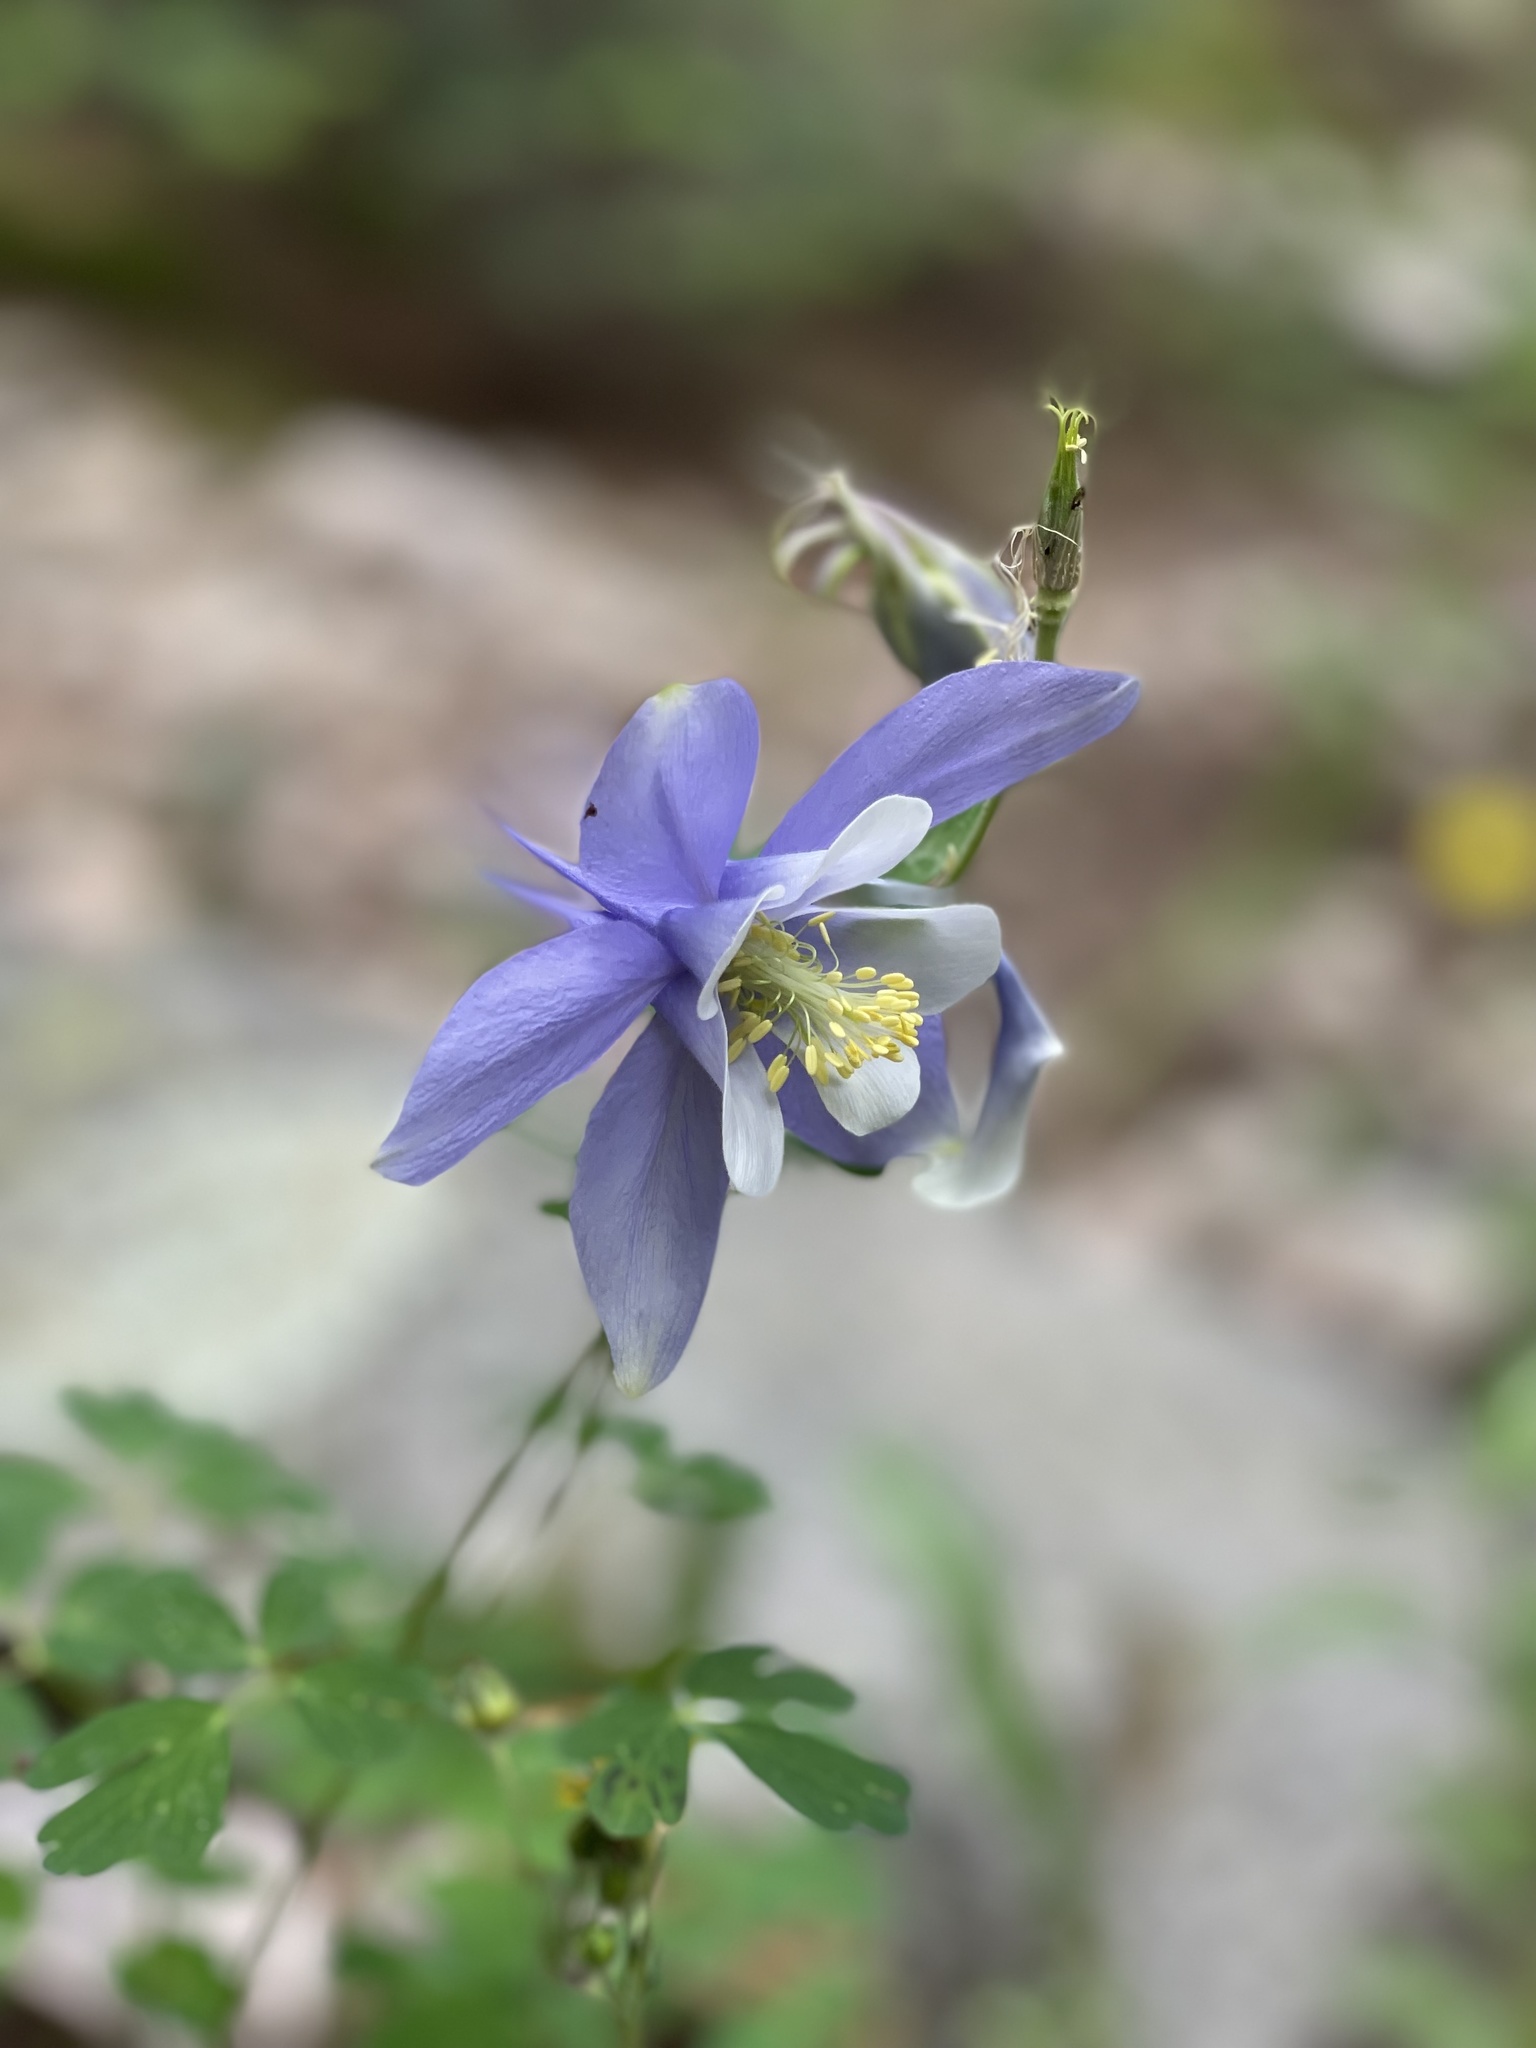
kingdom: Plantae
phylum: Tracheophyta
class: Magnoliopsida
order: Ranunculales
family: Ranunculaceae
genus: Aquilegia
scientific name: Aquilegia coerulea
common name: Rocky mountain columbine
